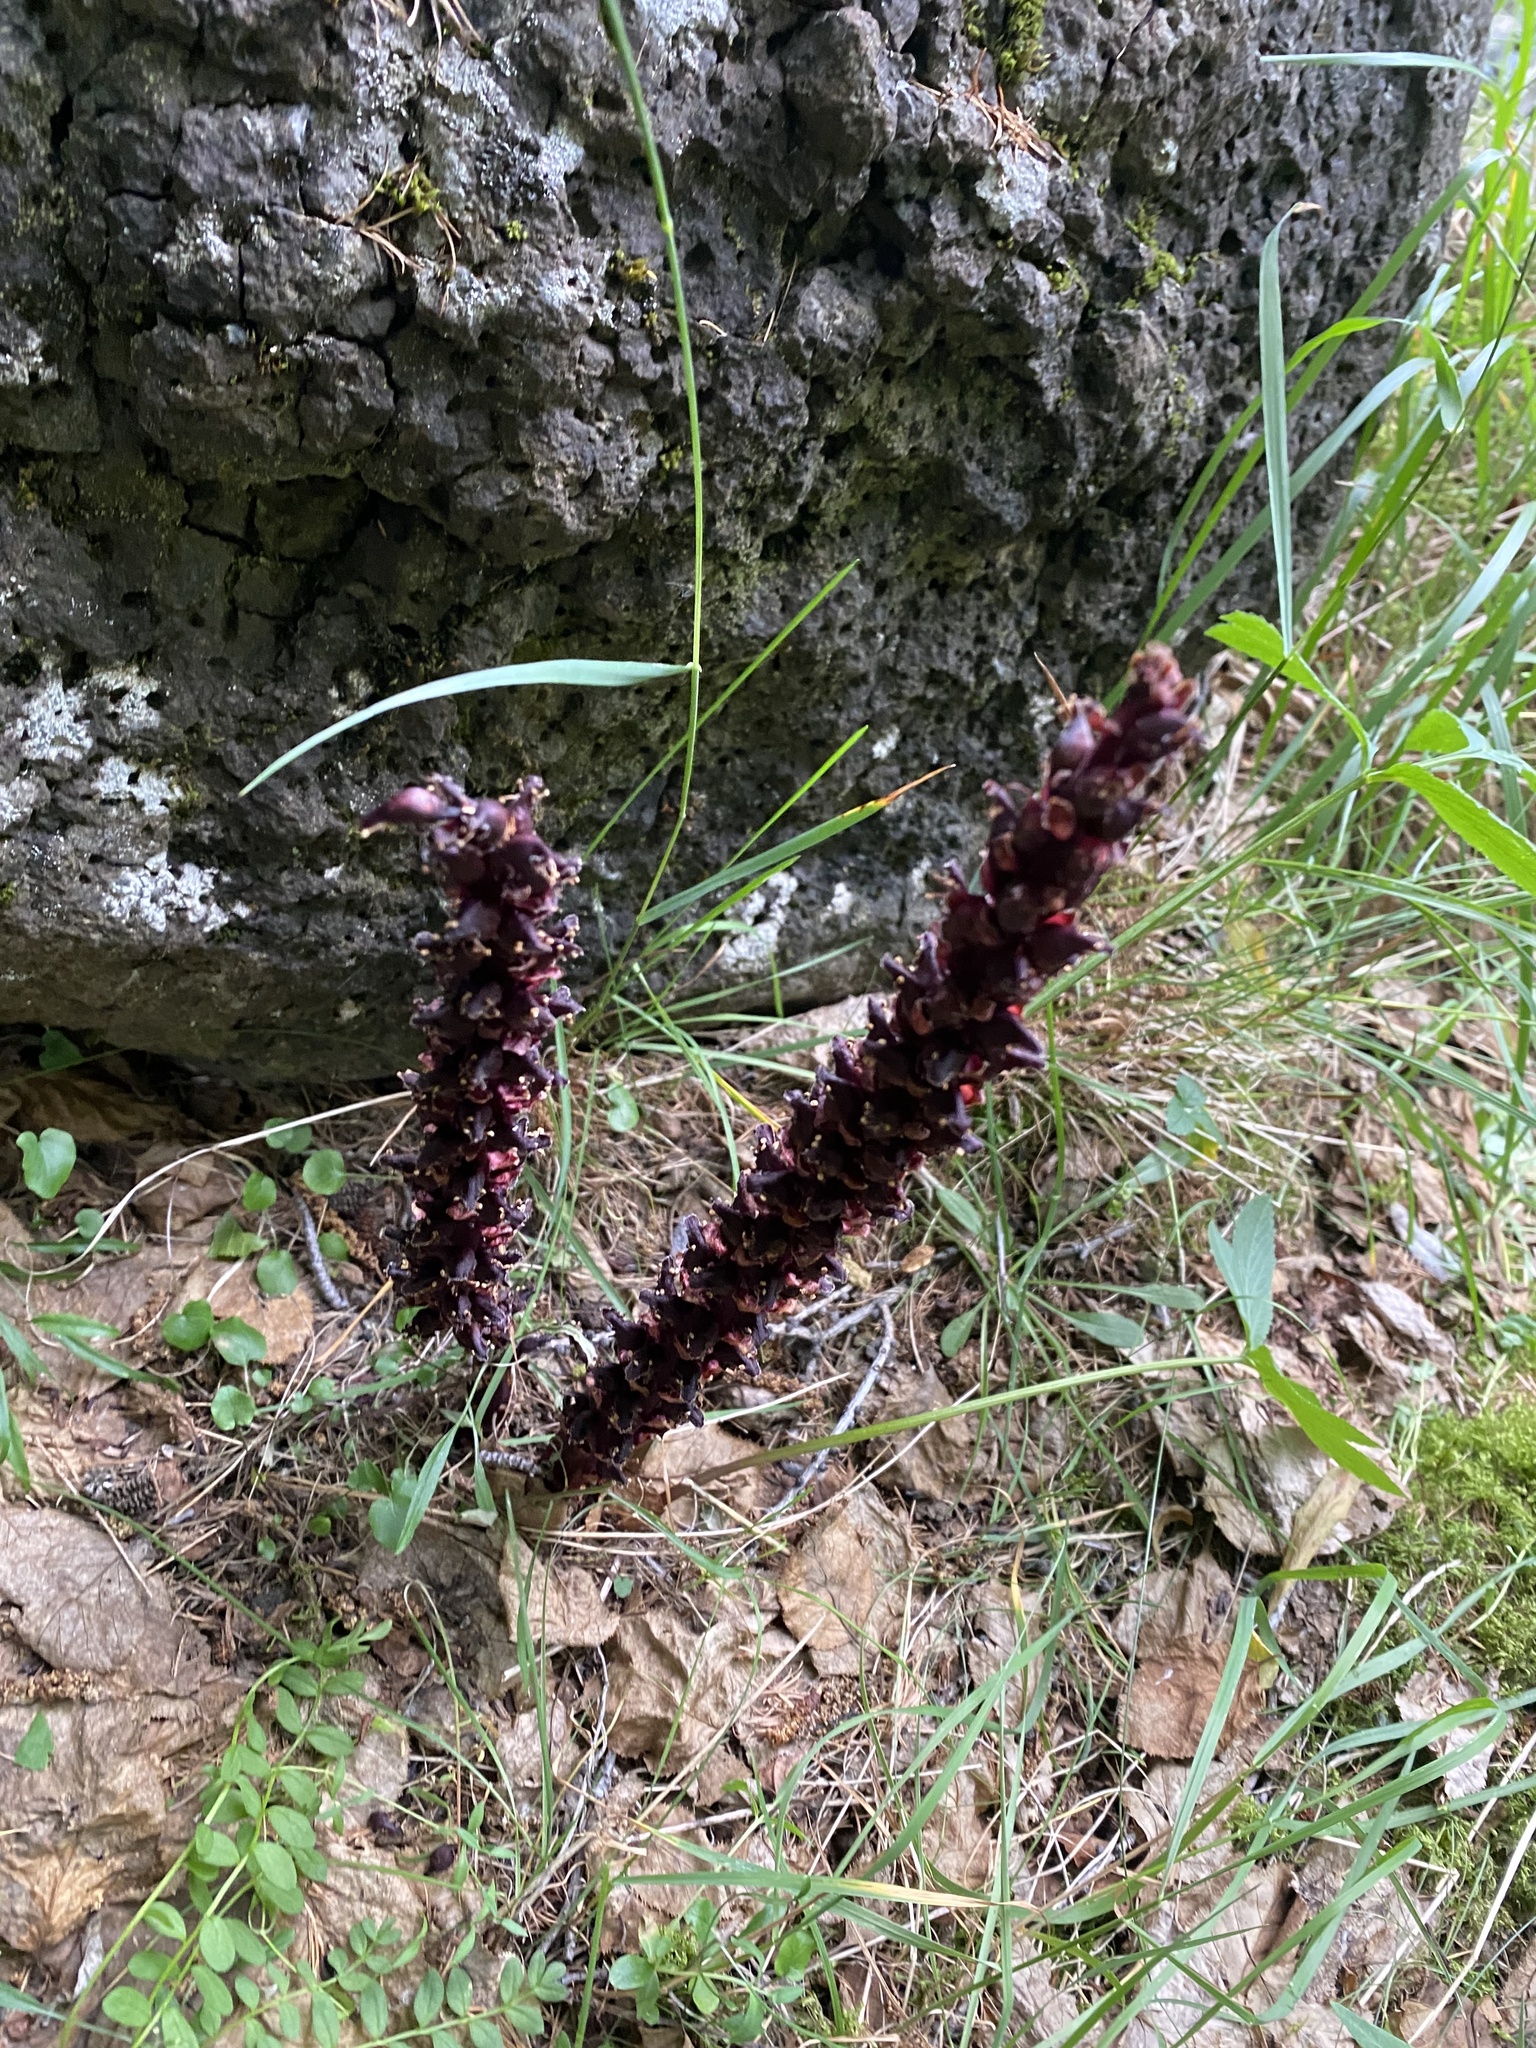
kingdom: Plantae
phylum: Tracheophyta
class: Magnoliopsida
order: Lamiales
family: Orobanchaceae
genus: Boschniakia
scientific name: Boschniakia rossica
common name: Poque
